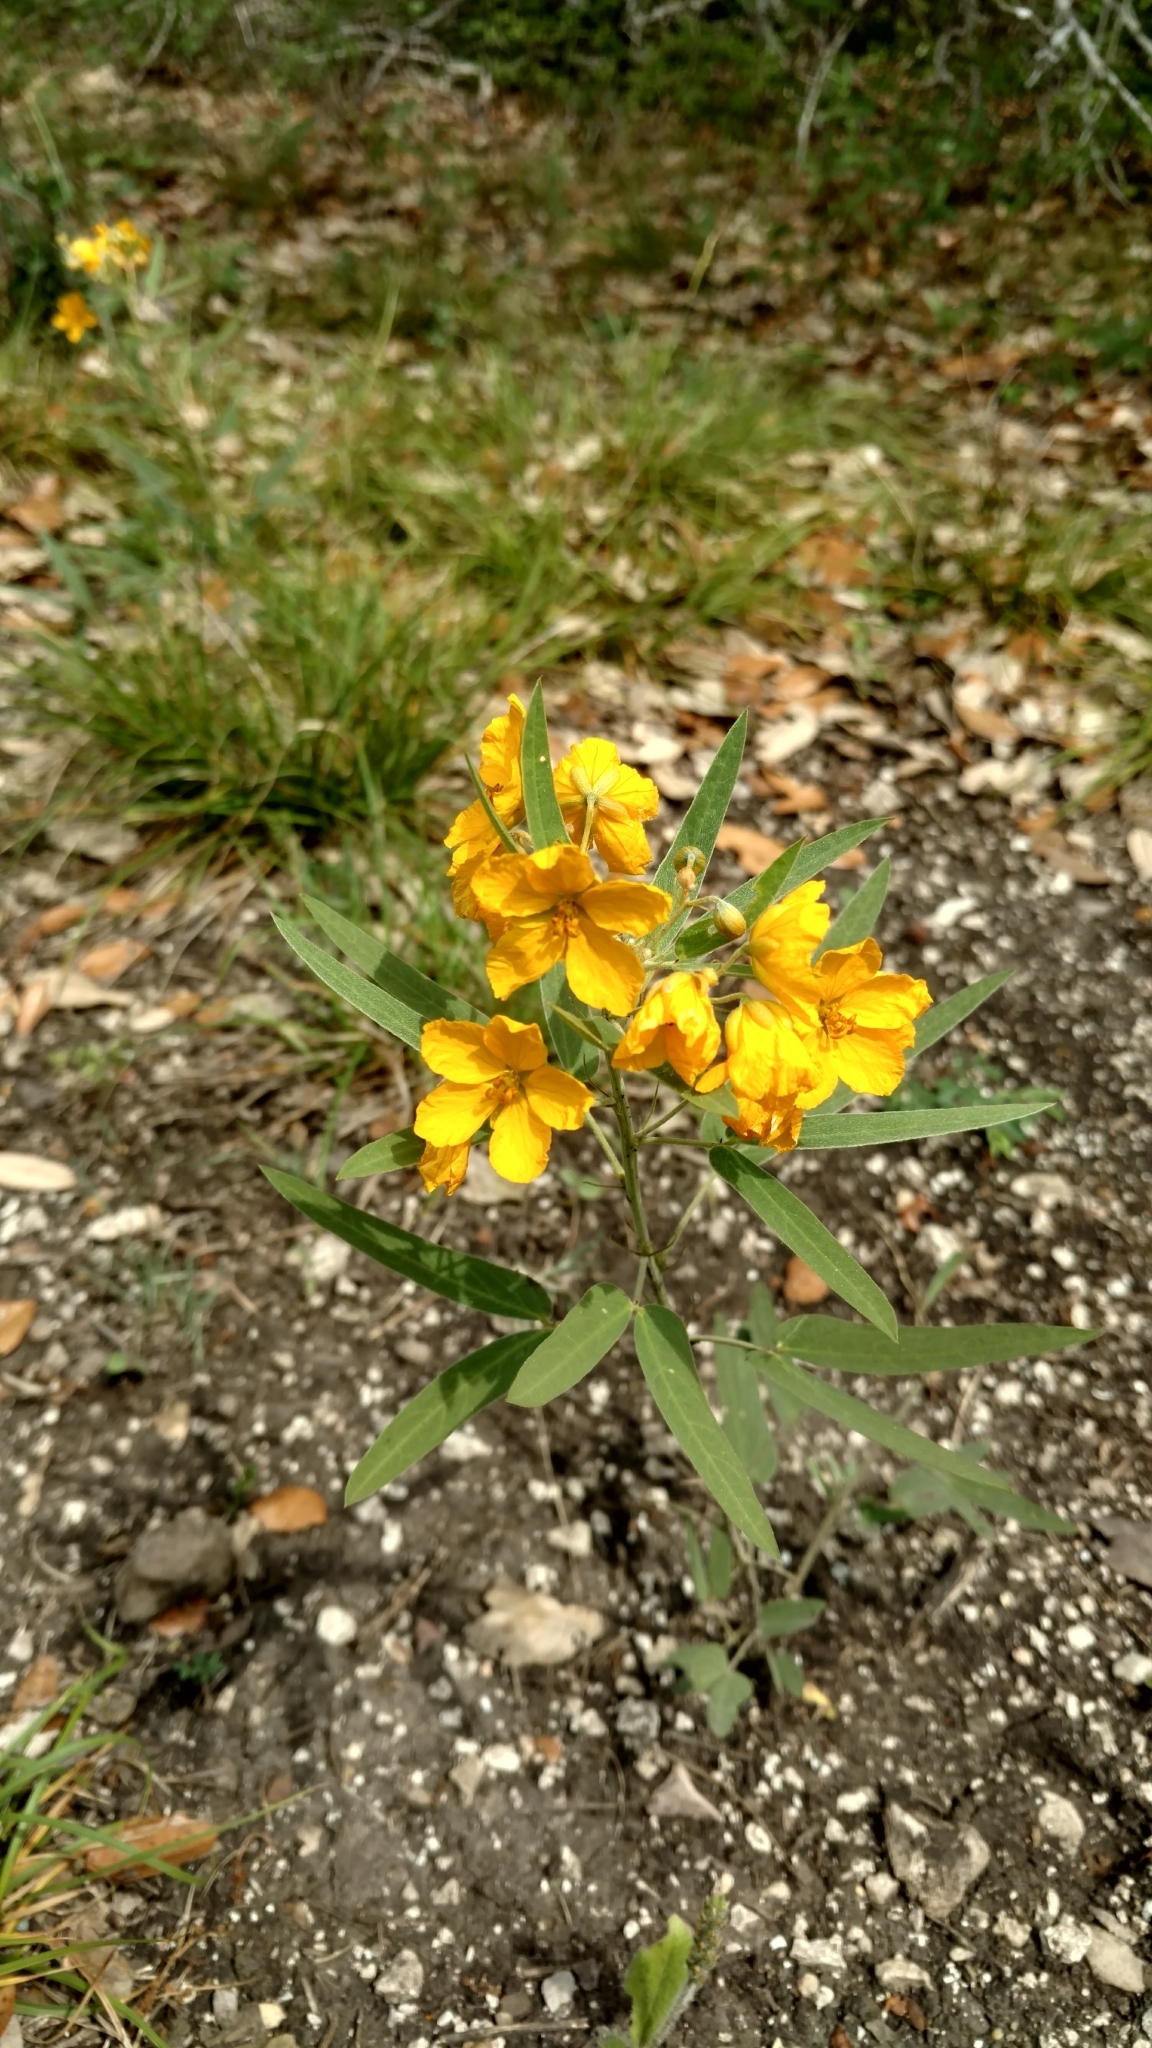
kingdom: Plantae
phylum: Tracheophyta
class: Magnoliopsida
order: Fabales
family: Fabaceae
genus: Senna
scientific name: Senna roemeriana
